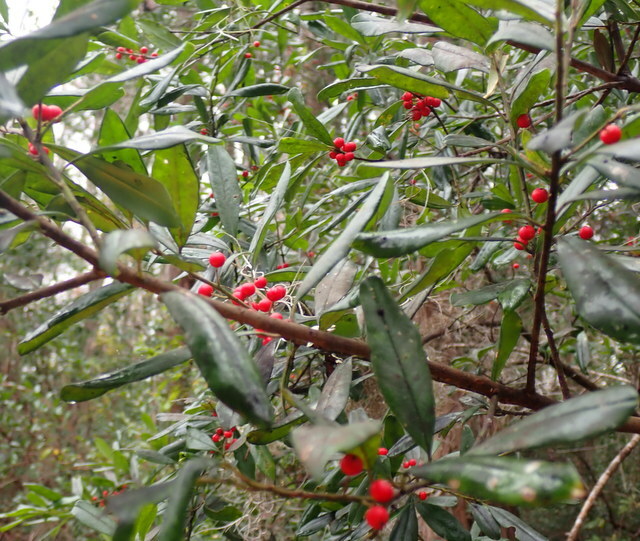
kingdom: Plantae
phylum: Tracheophyta
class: Magnoliopsida
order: Aquifoliales
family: Aquifoliaceae
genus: Ilex
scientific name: Ilex cassine
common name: Dahoon
